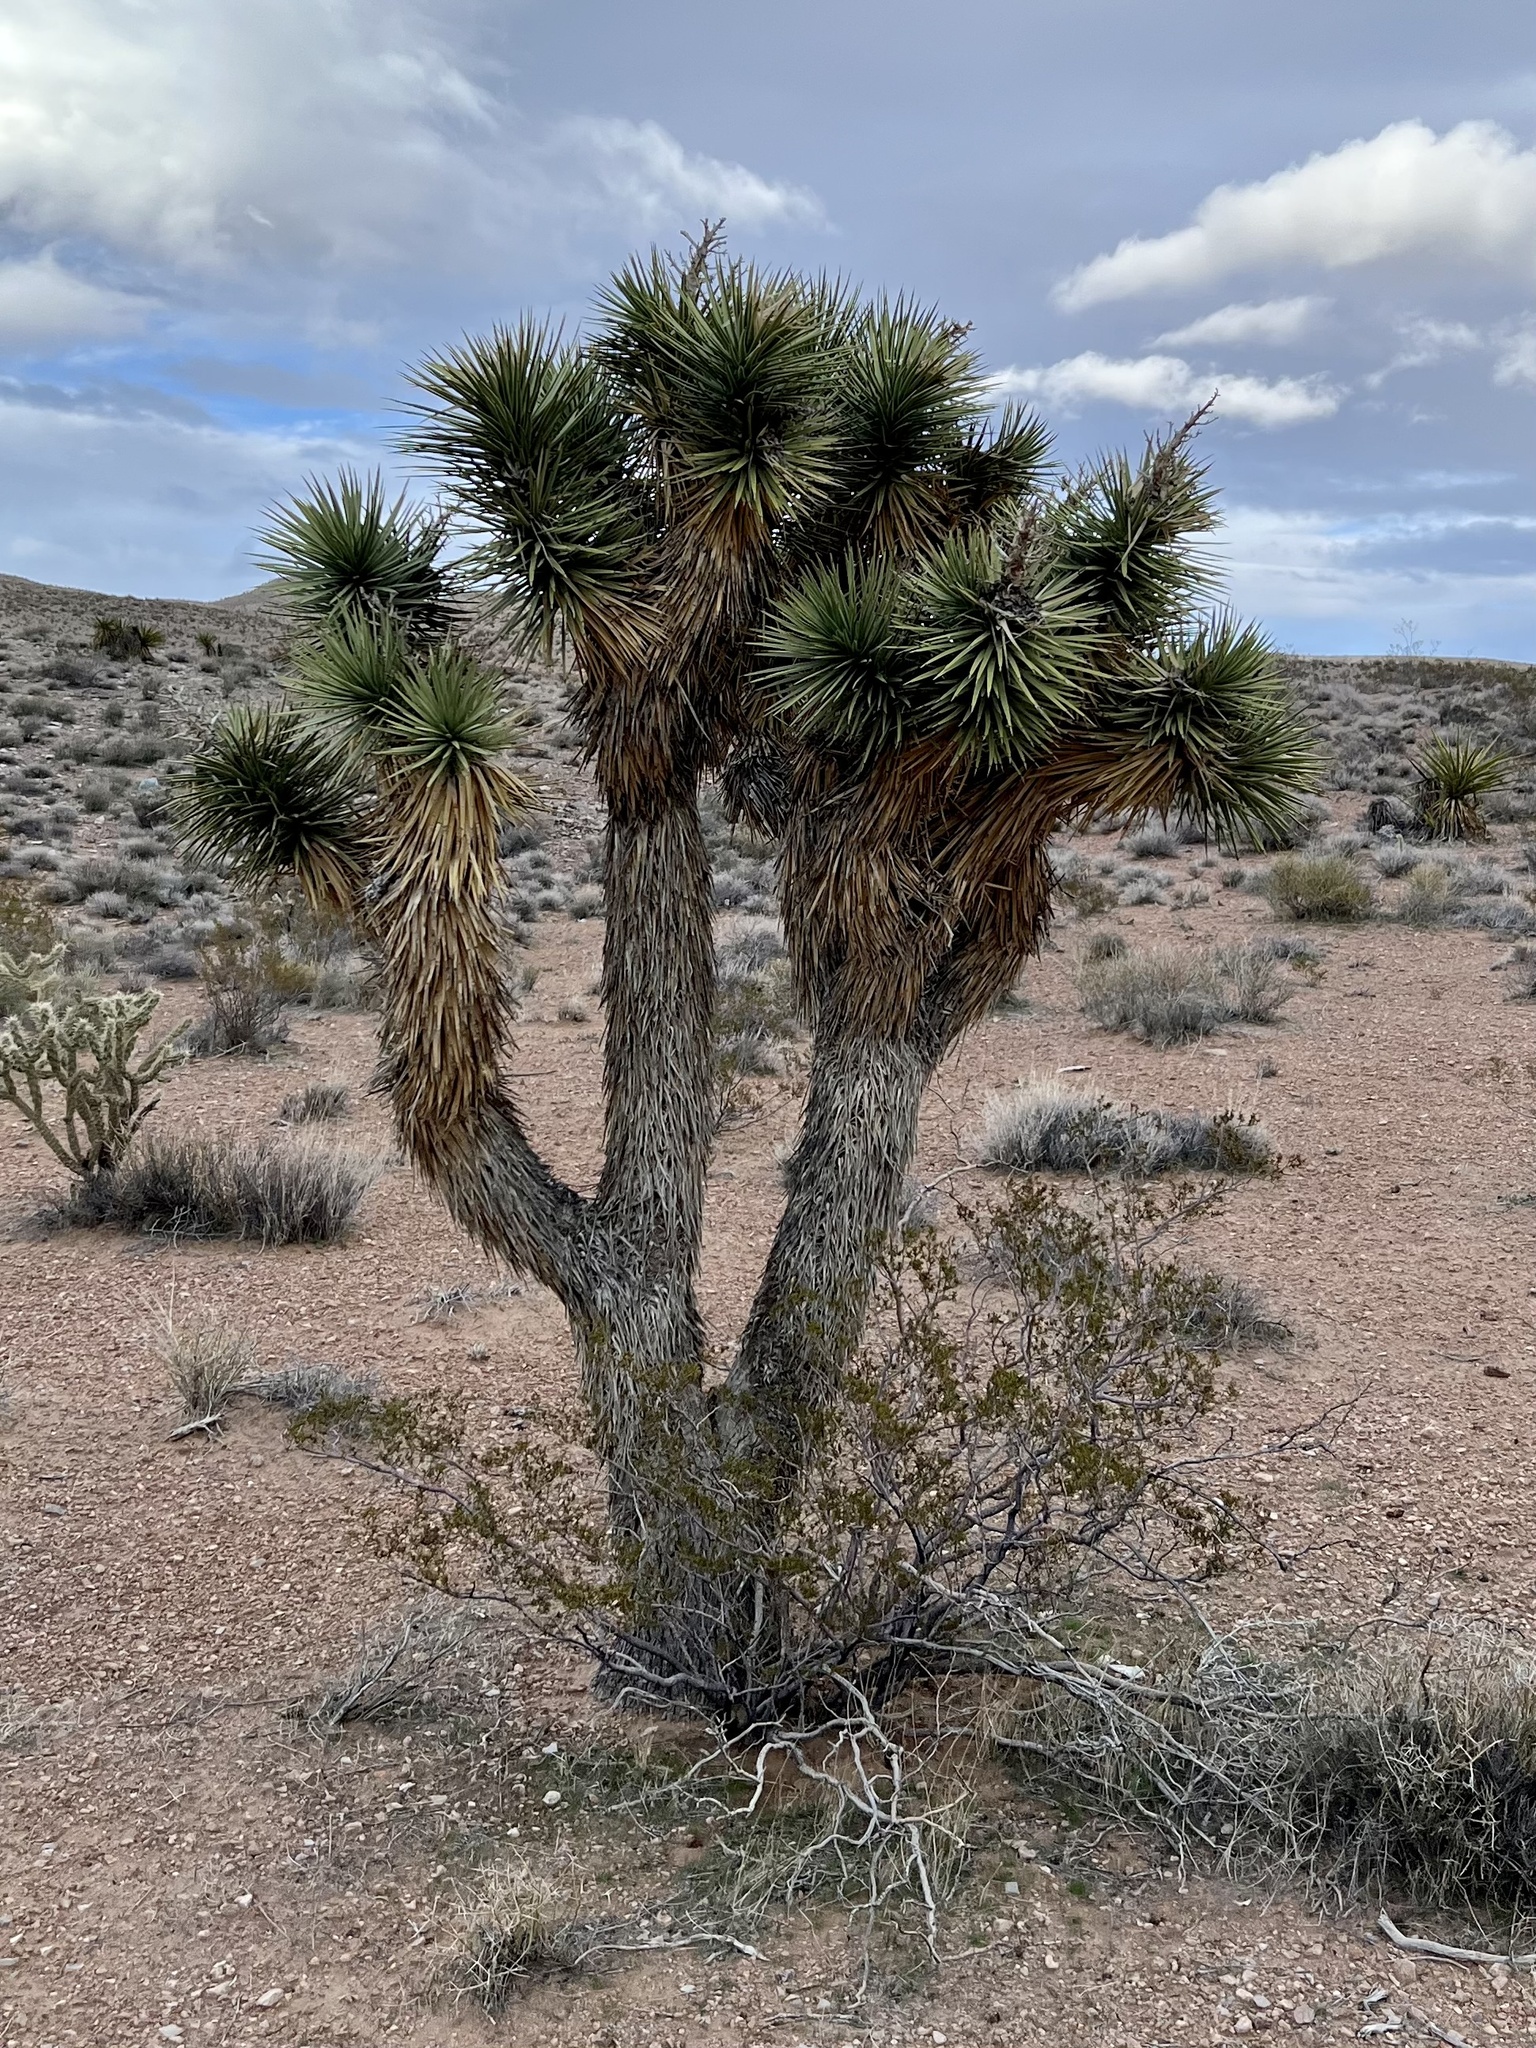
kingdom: Plantae
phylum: Tracheophyta
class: Liliopsida
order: Asparagales
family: Asparagaceae
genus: Yucca
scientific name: Yucca brevifolia
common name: Joshua tree
